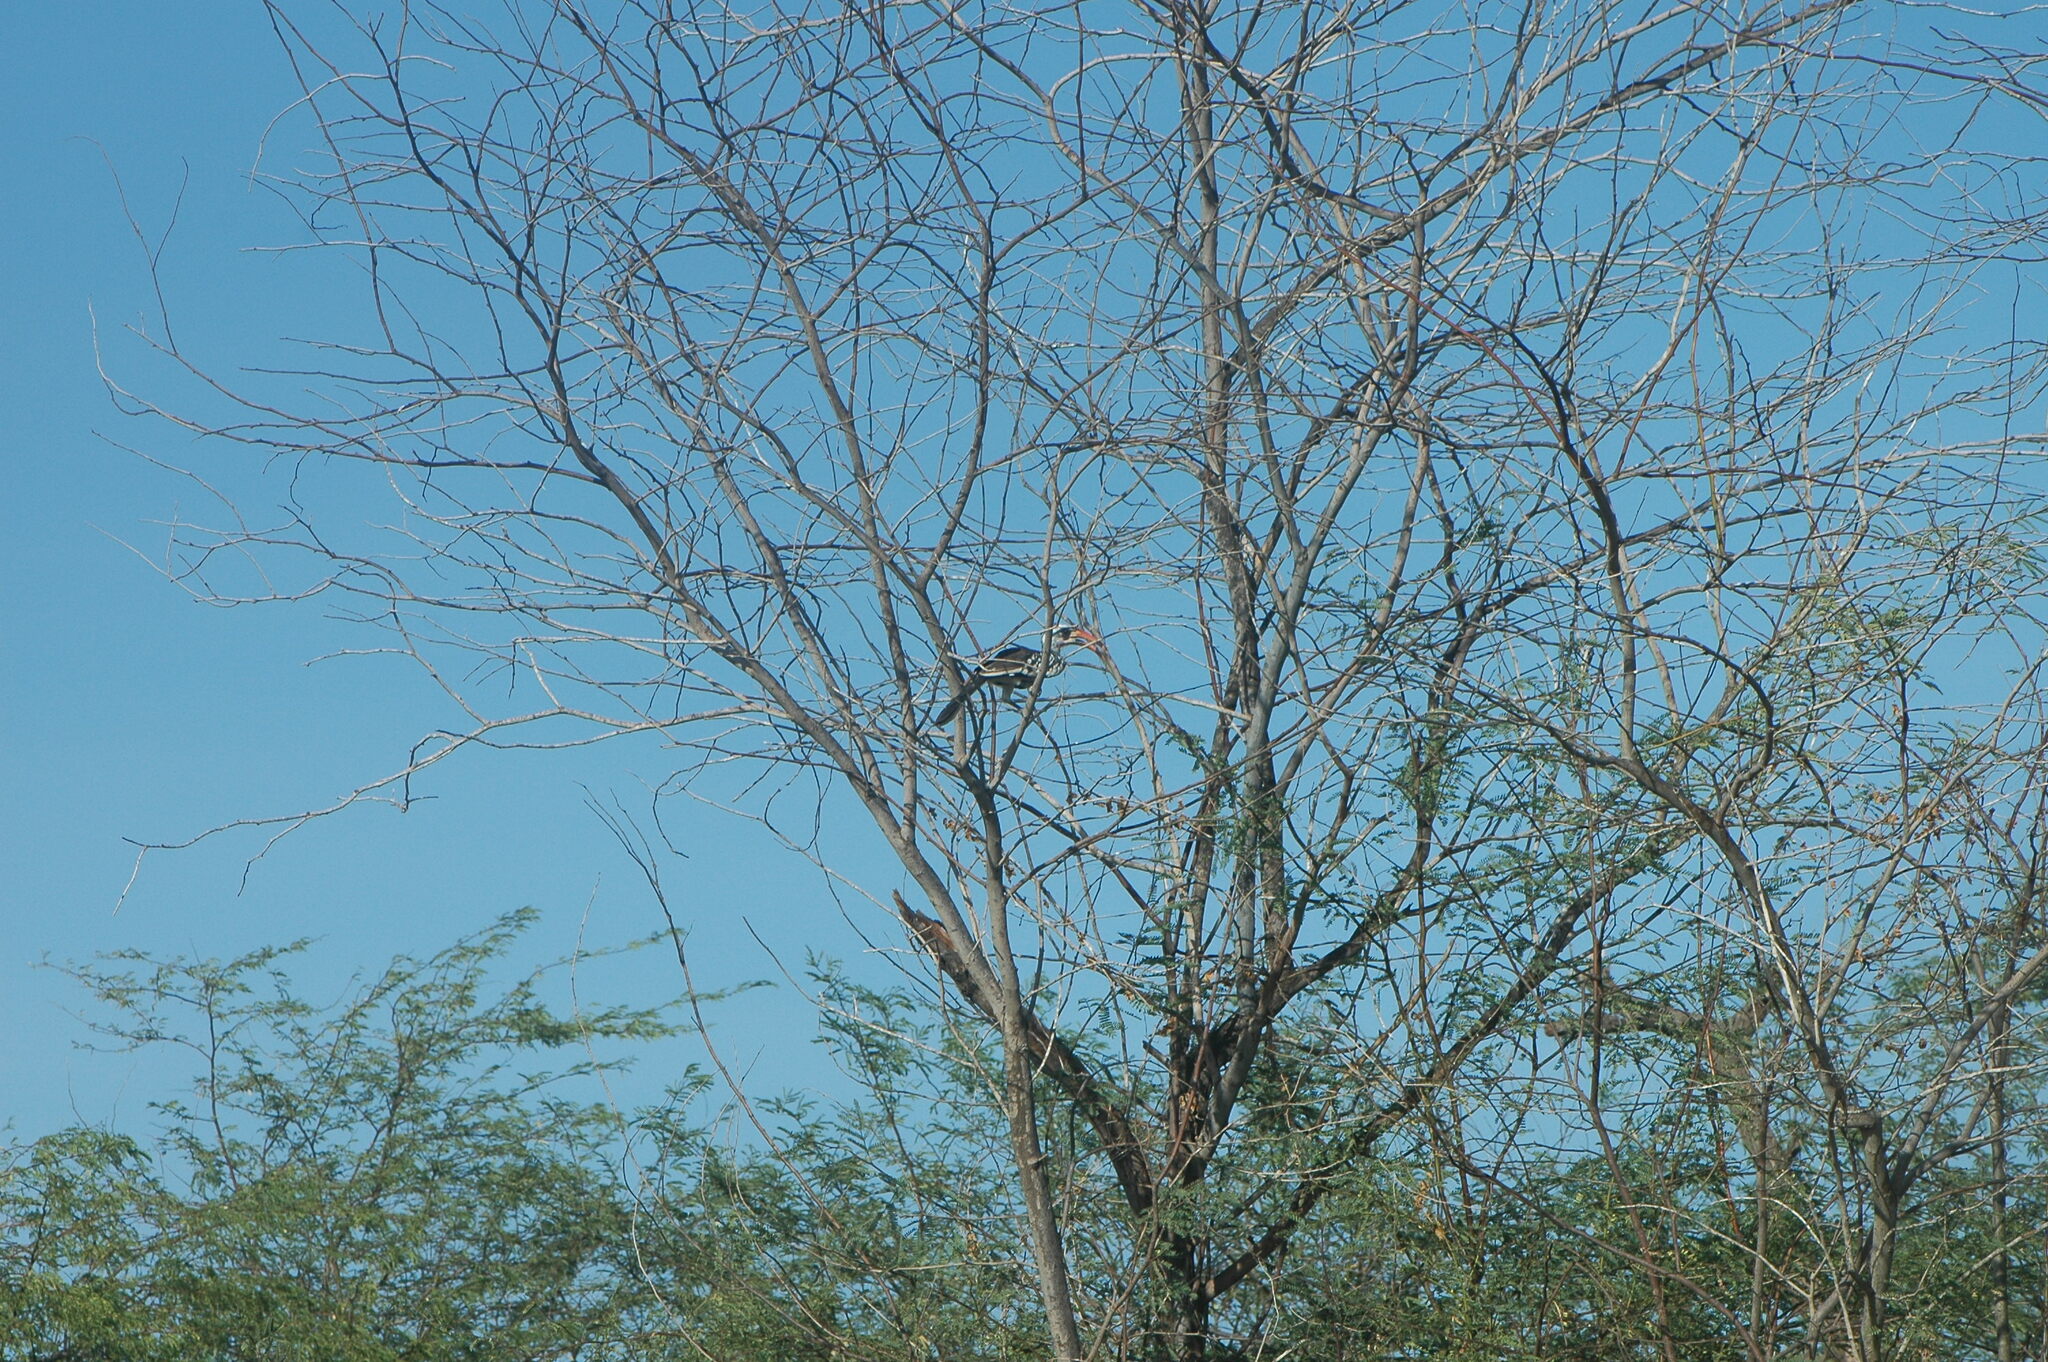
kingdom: Animalia
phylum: Chordata
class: Aves
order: Bucerotiformes
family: Bucerotidae
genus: Tockus
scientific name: Tockus kempi
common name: Western red-billed hornbill
